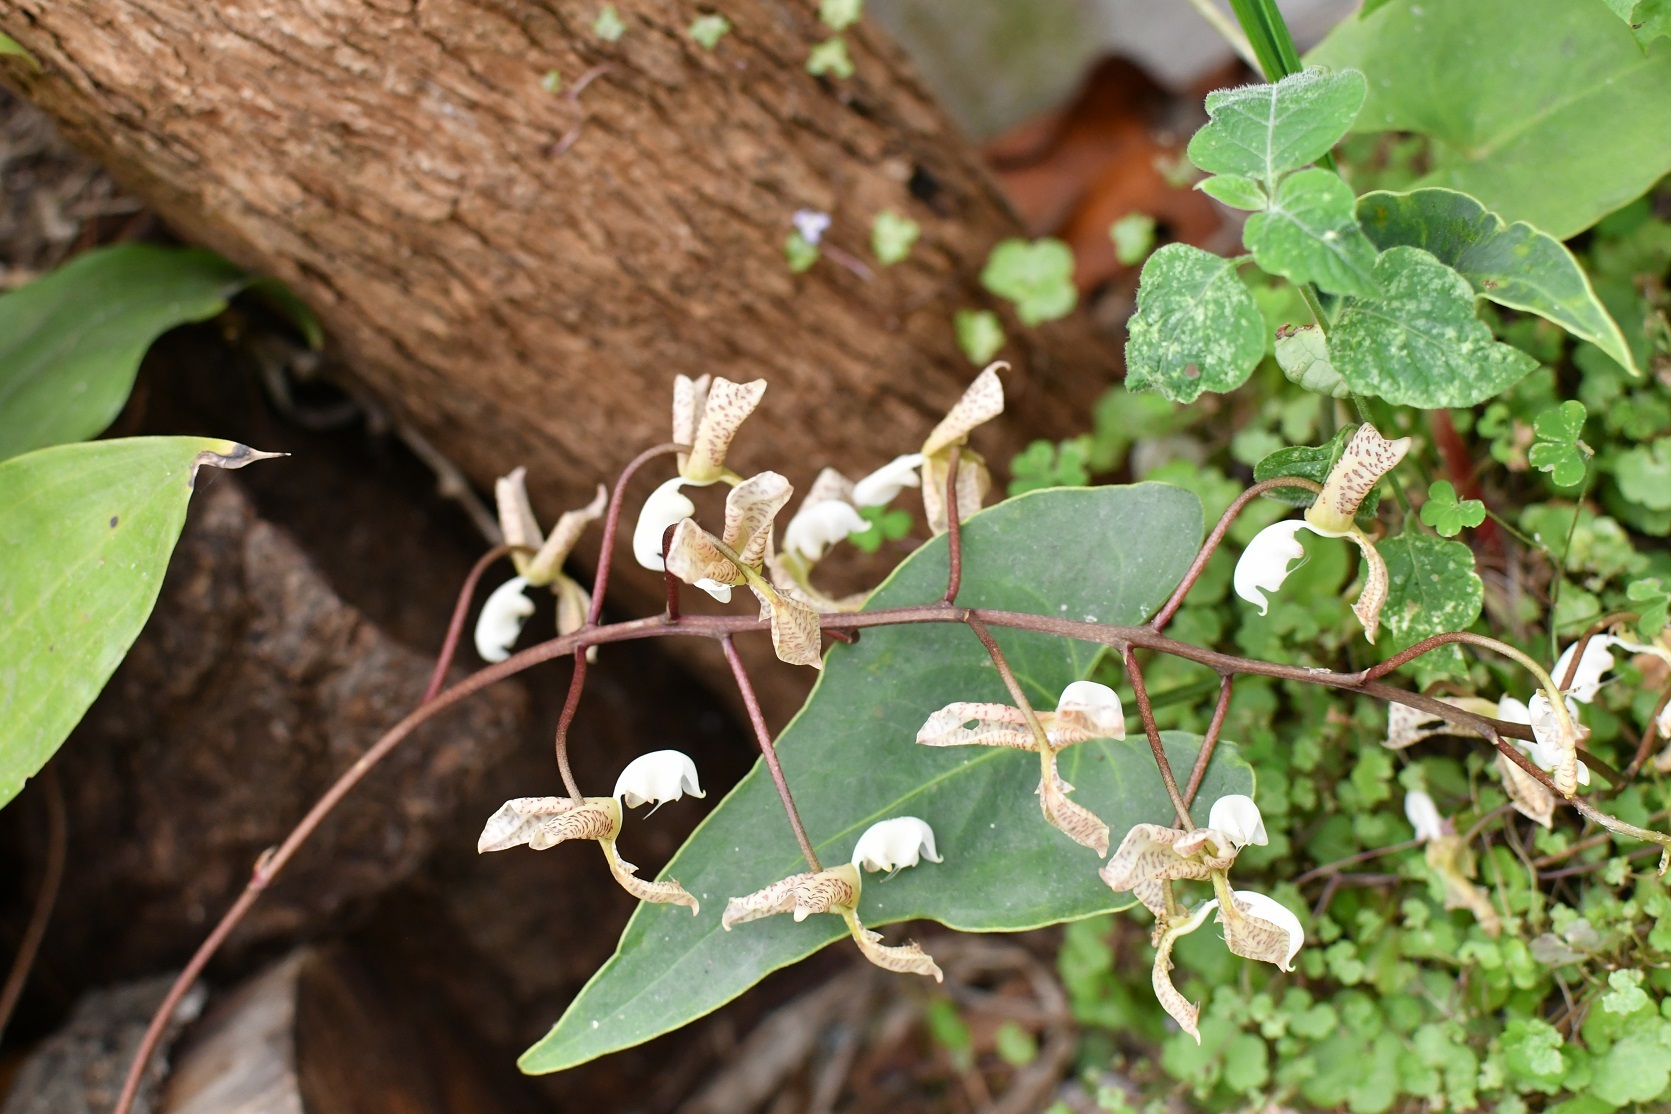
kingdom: Plantae
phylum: Tracheophyta
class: Liliopsida
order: Asparagales
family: Orchidaceae
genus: Gongora
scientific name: Gongora truncata
